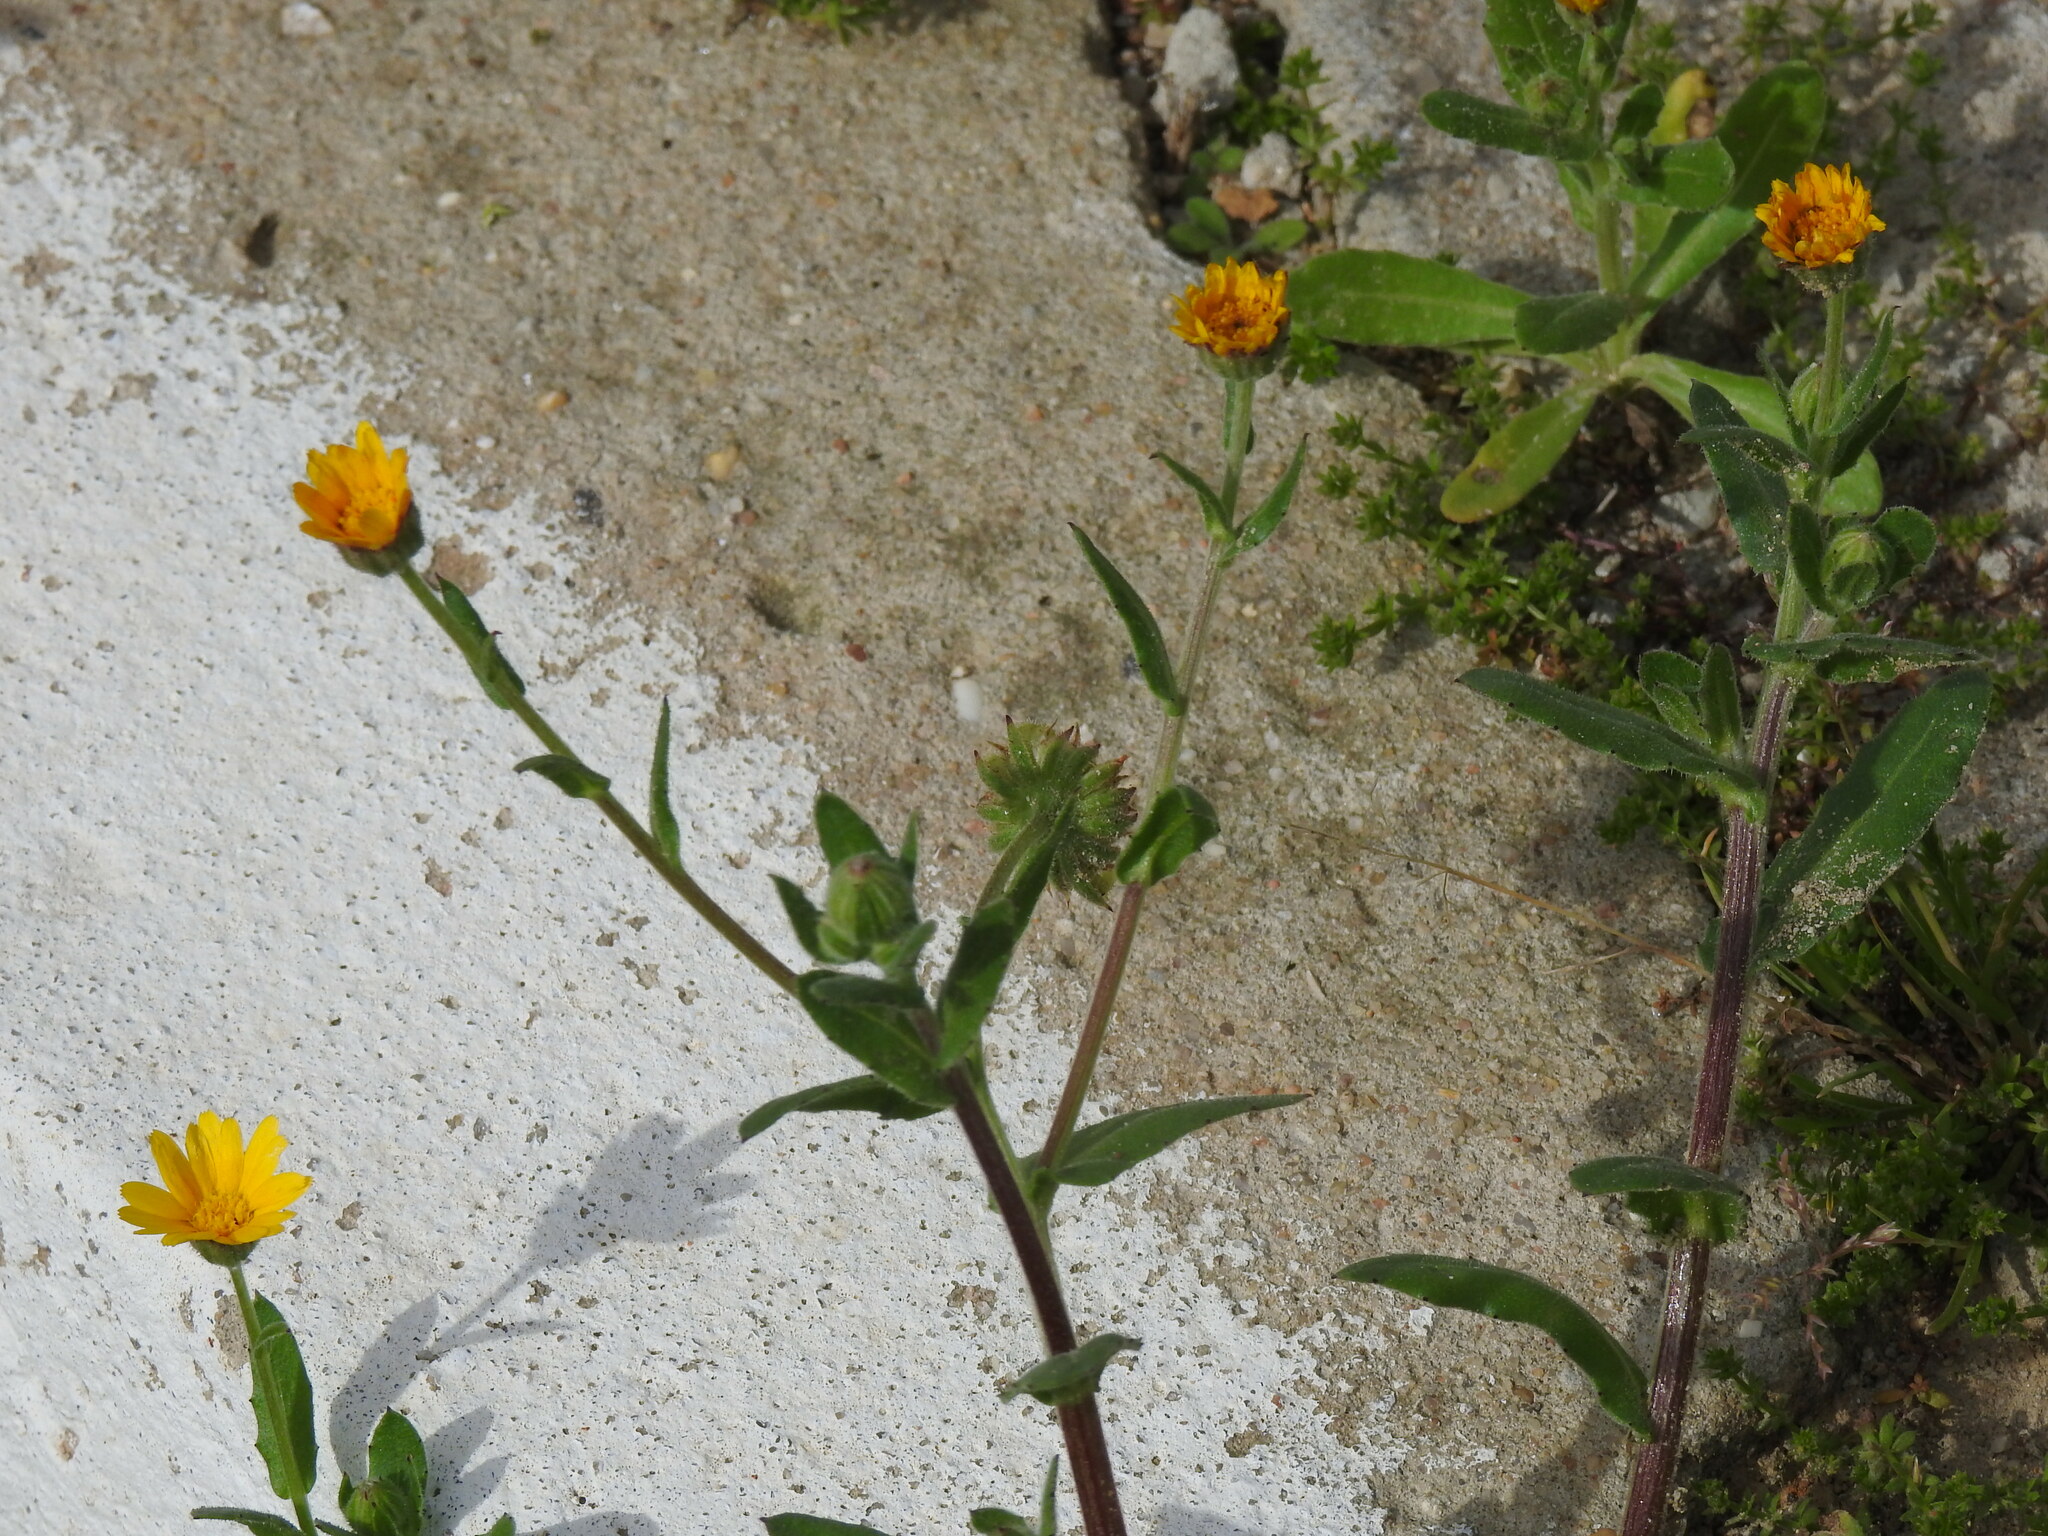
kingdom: Plantae
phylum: Tracheophyta
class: Magnoliopsida
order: Asterales
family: Asteraceae
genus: Calendula
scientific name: Calendula arvensis
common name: Field marigold
